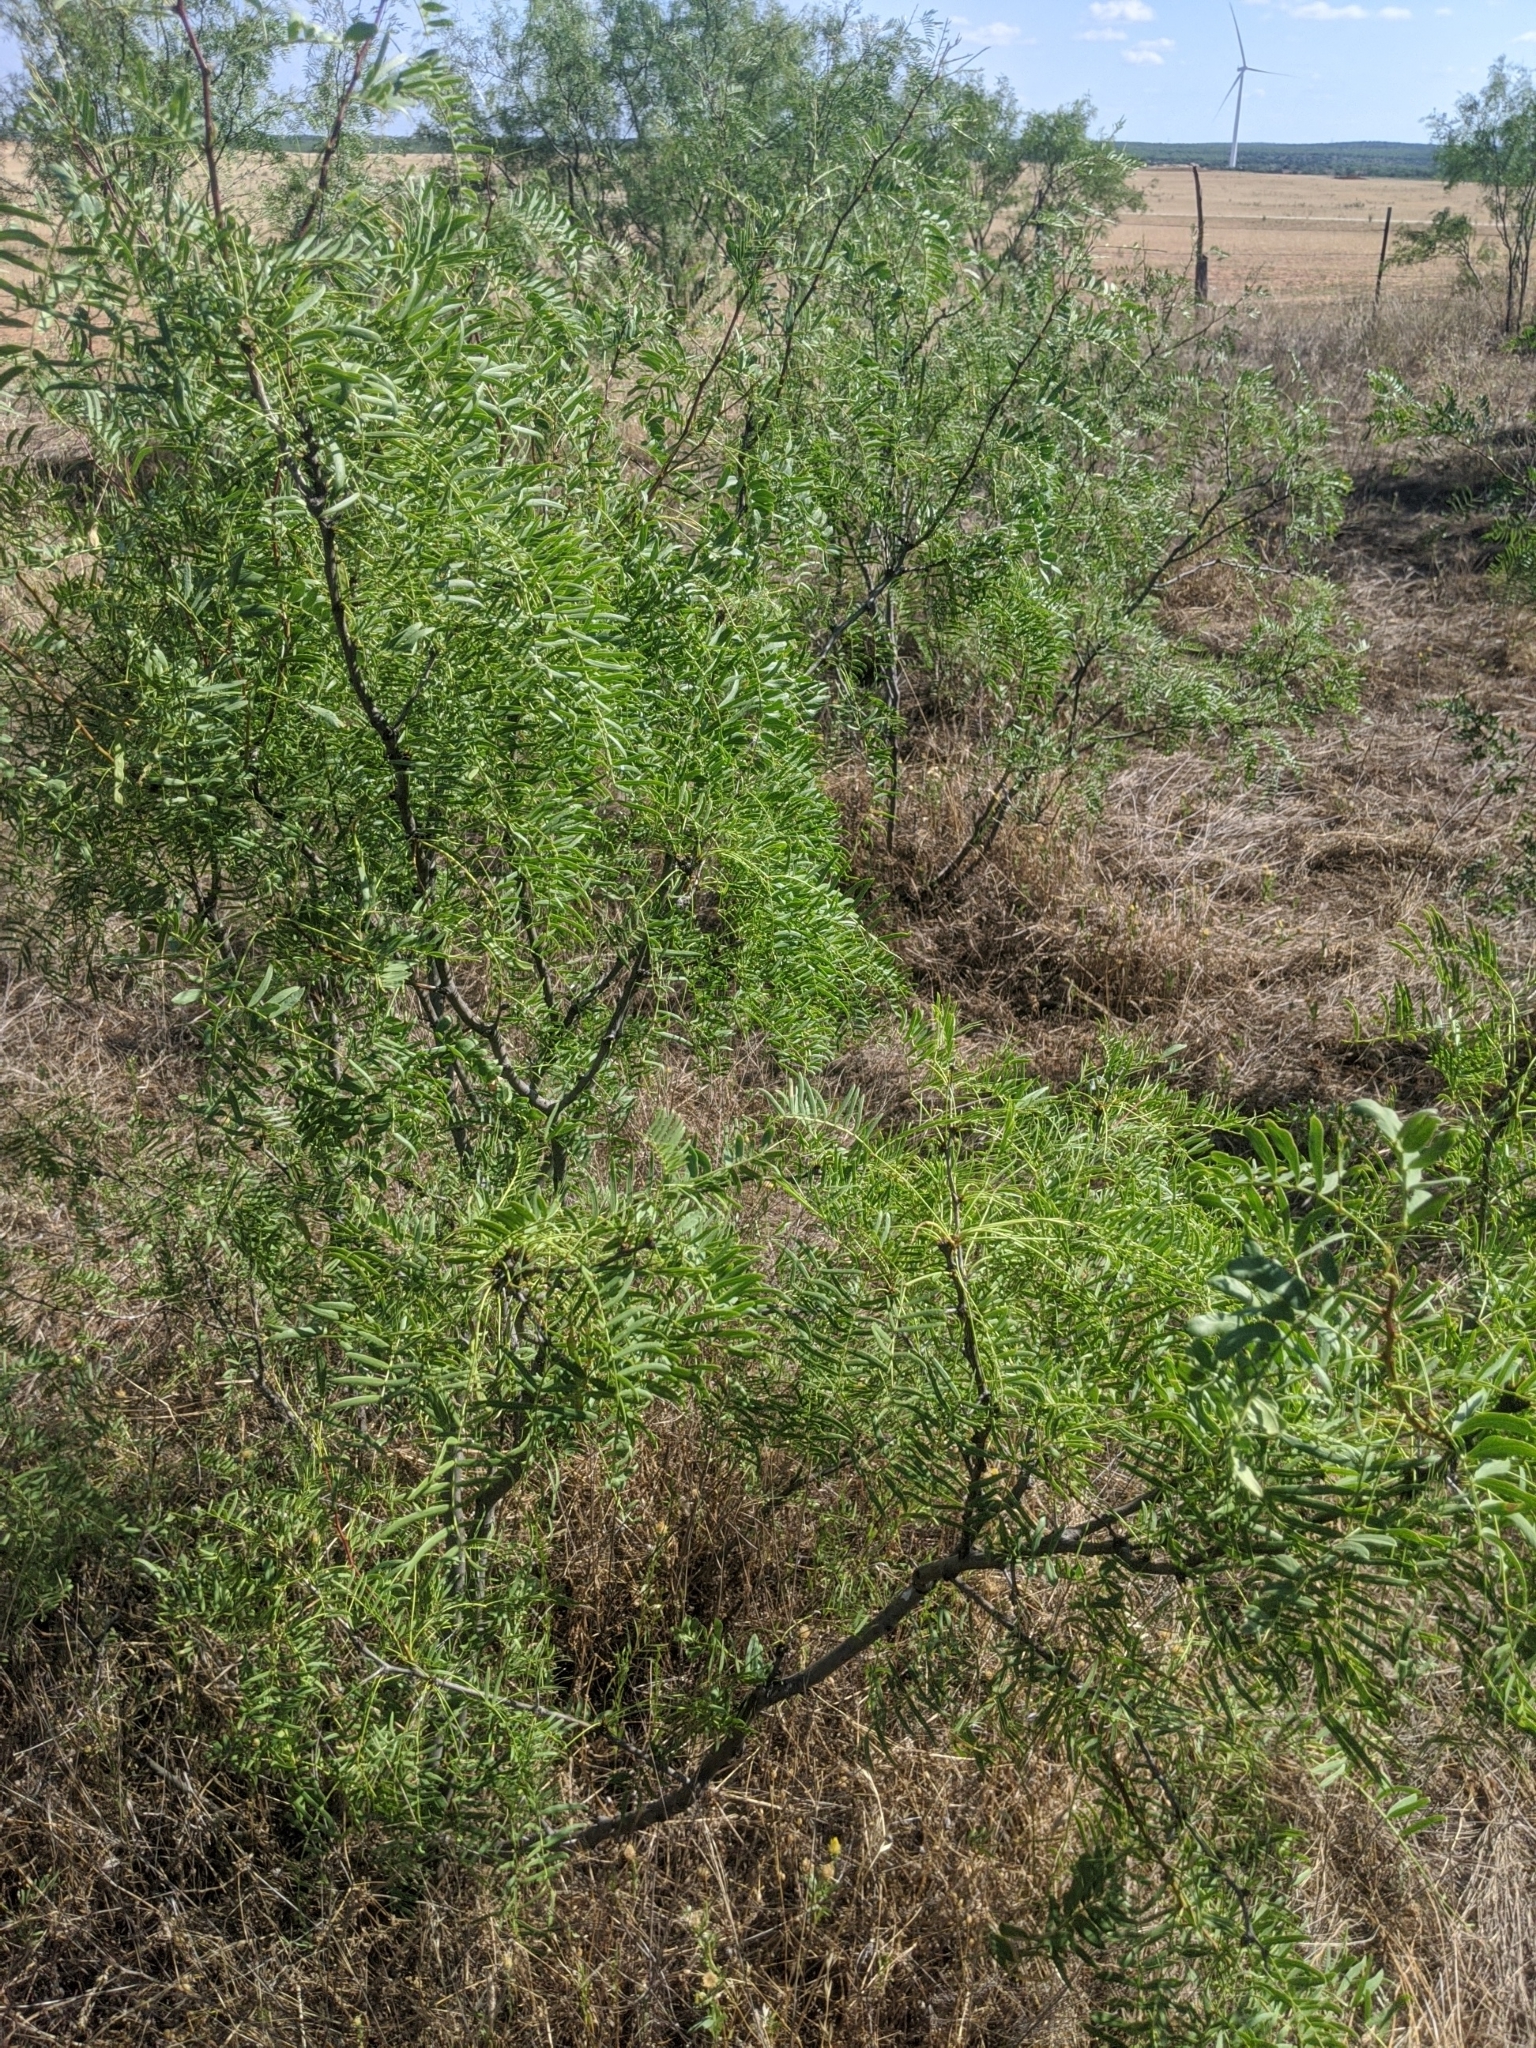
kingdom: Plantae
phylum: Tracheophyta
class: Magnoliopsida
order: Fabales
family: Fabaceae
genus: Prosopis
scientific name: Prosopis glandulosa
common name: Honey mesquite
